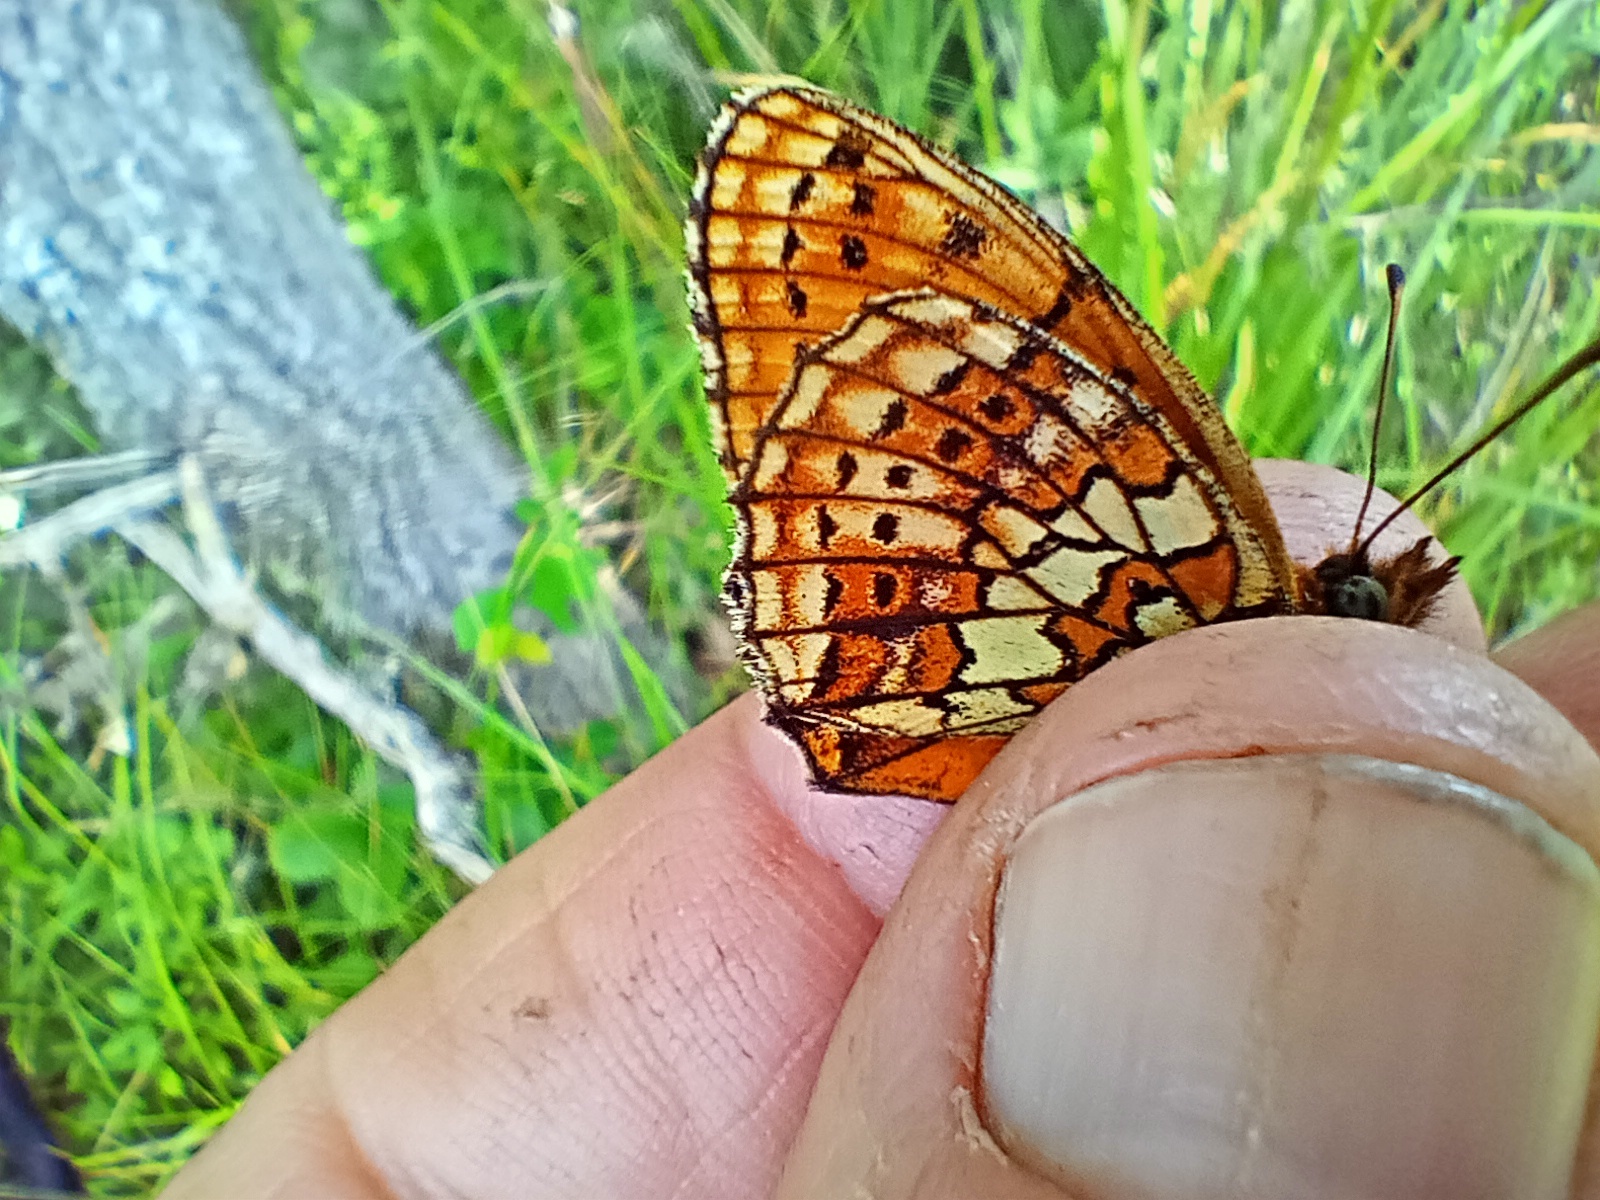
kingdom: Animalia
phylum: Arthropoda
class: Insecta
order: Lepidoptera
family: Nymphalidae
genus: Brenthis
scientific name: Brenthis hecate
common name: Twin-spot fritillary
